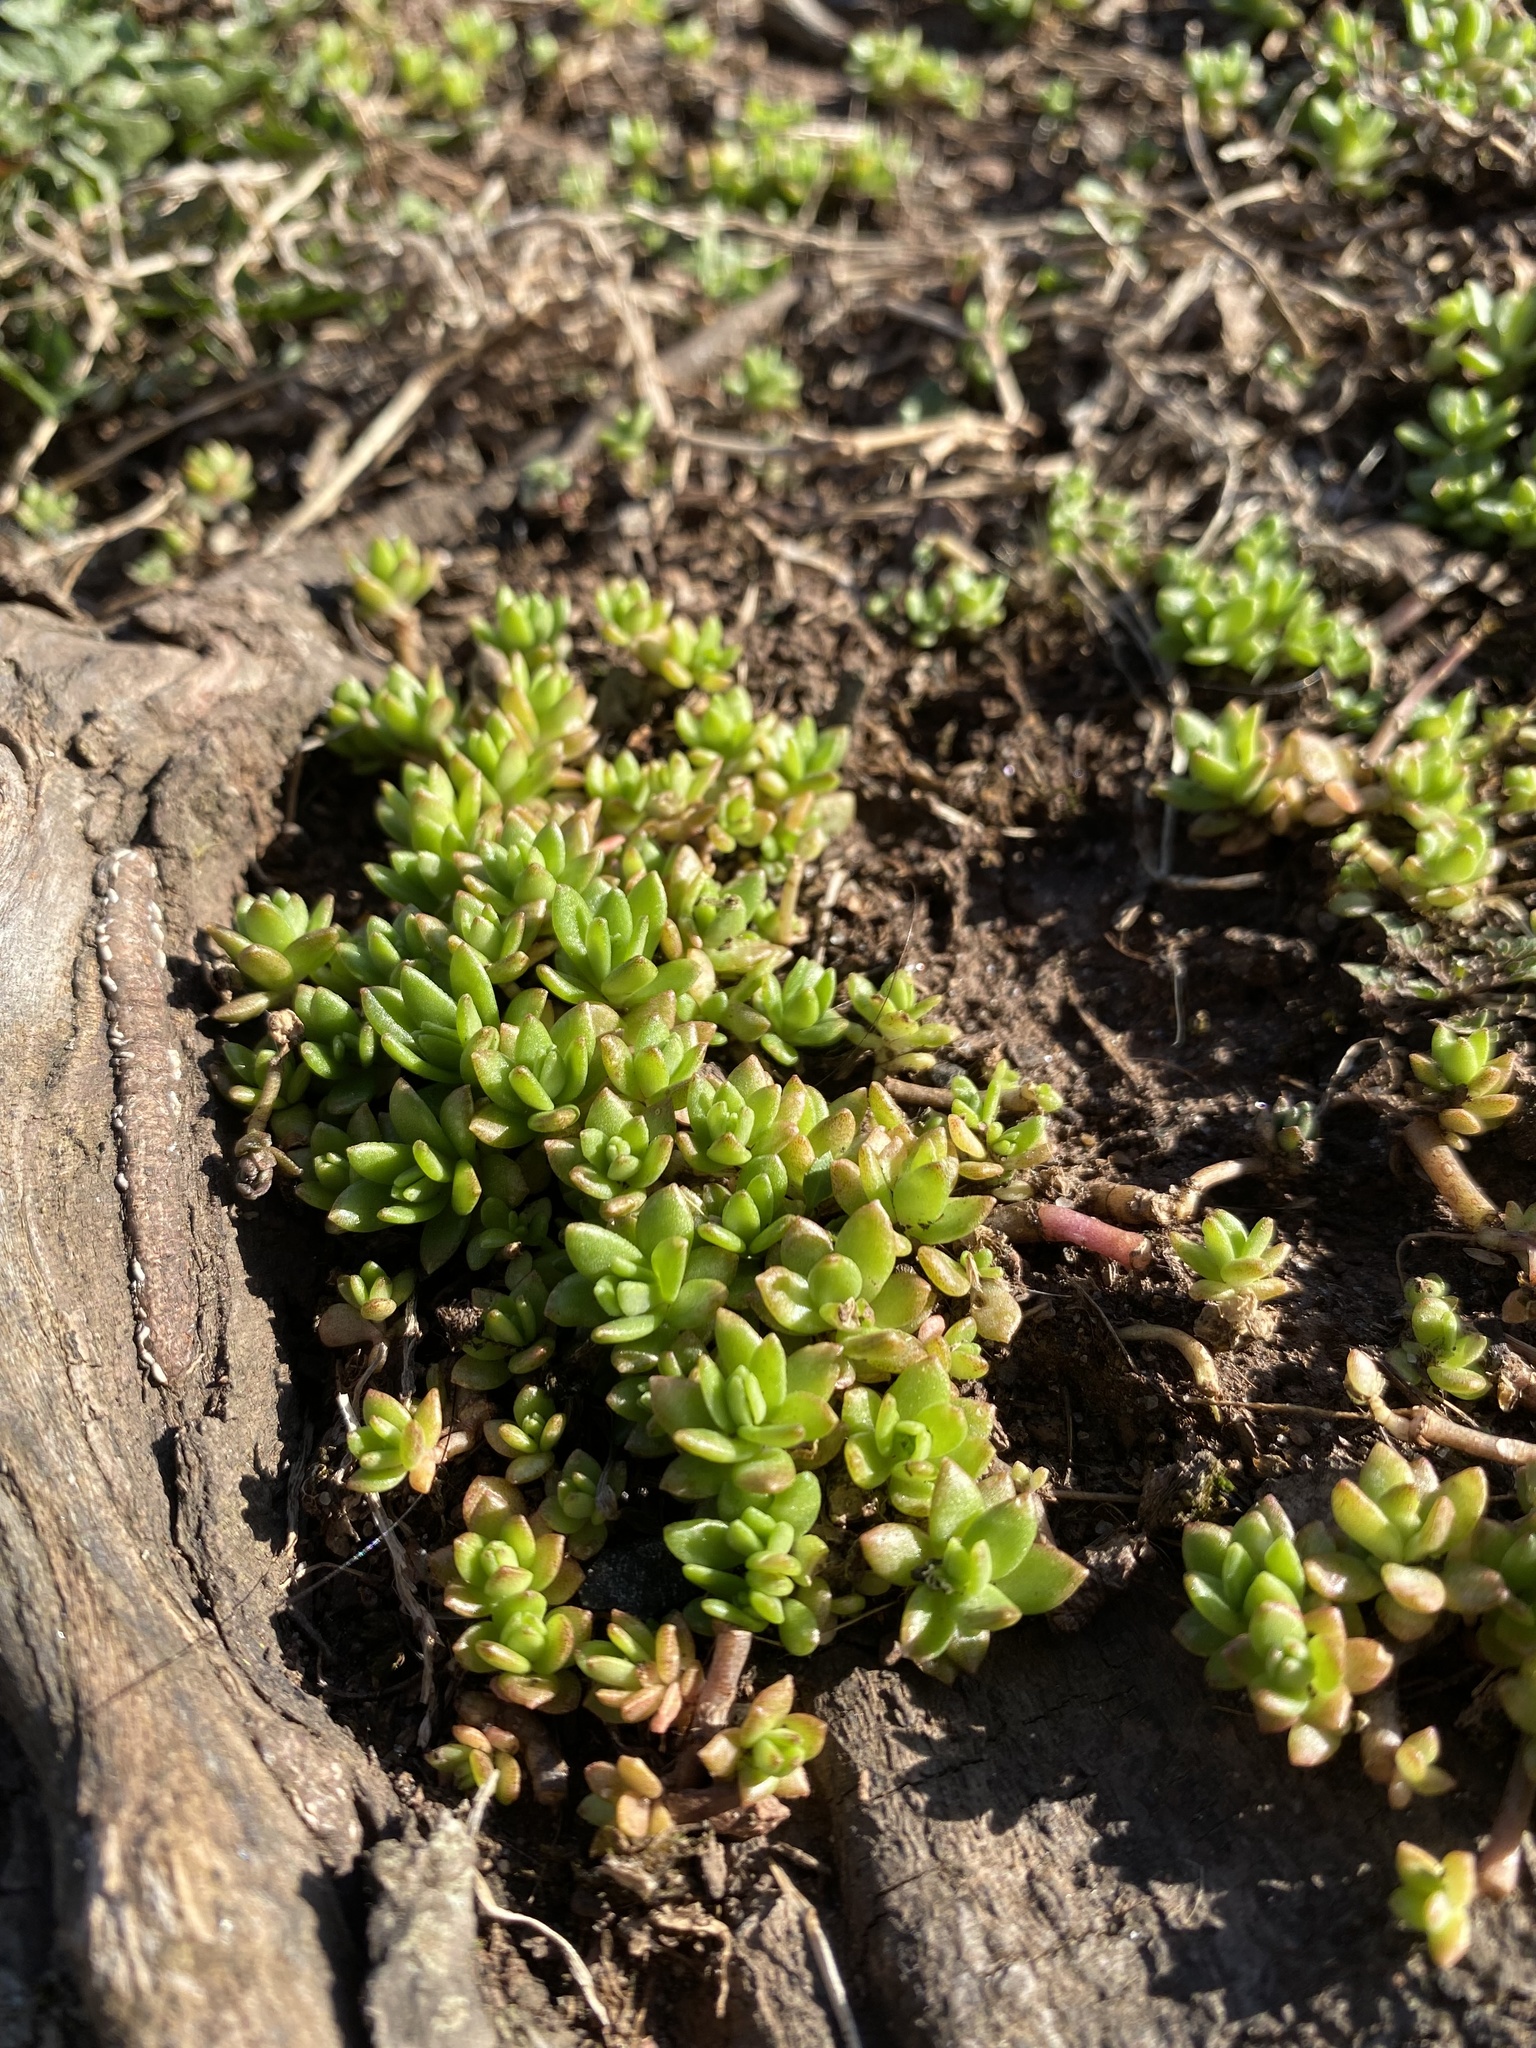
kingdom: Plantae
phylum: Tracheophyta
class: Magnoliopsida
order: Saxifragales
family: Crassulaceae
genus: Sedum
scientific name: Sedum sarmentosum
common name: Stringy stonecrop
